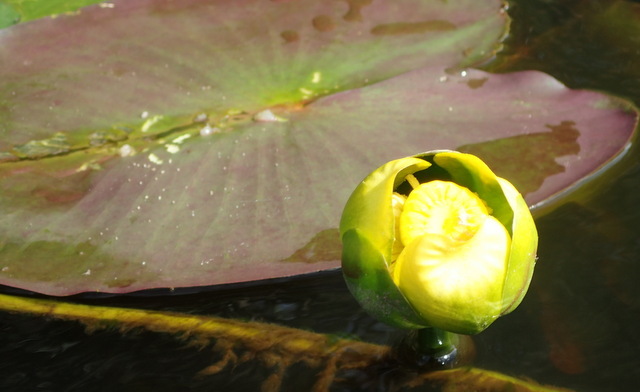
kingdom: Plantae
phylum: Tracheophyta
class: Magnoliopsida
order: Nymphaeales
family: Nymphaeaceae
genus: Nuphar
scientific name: Nuphar advena
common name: Spatter-dock
